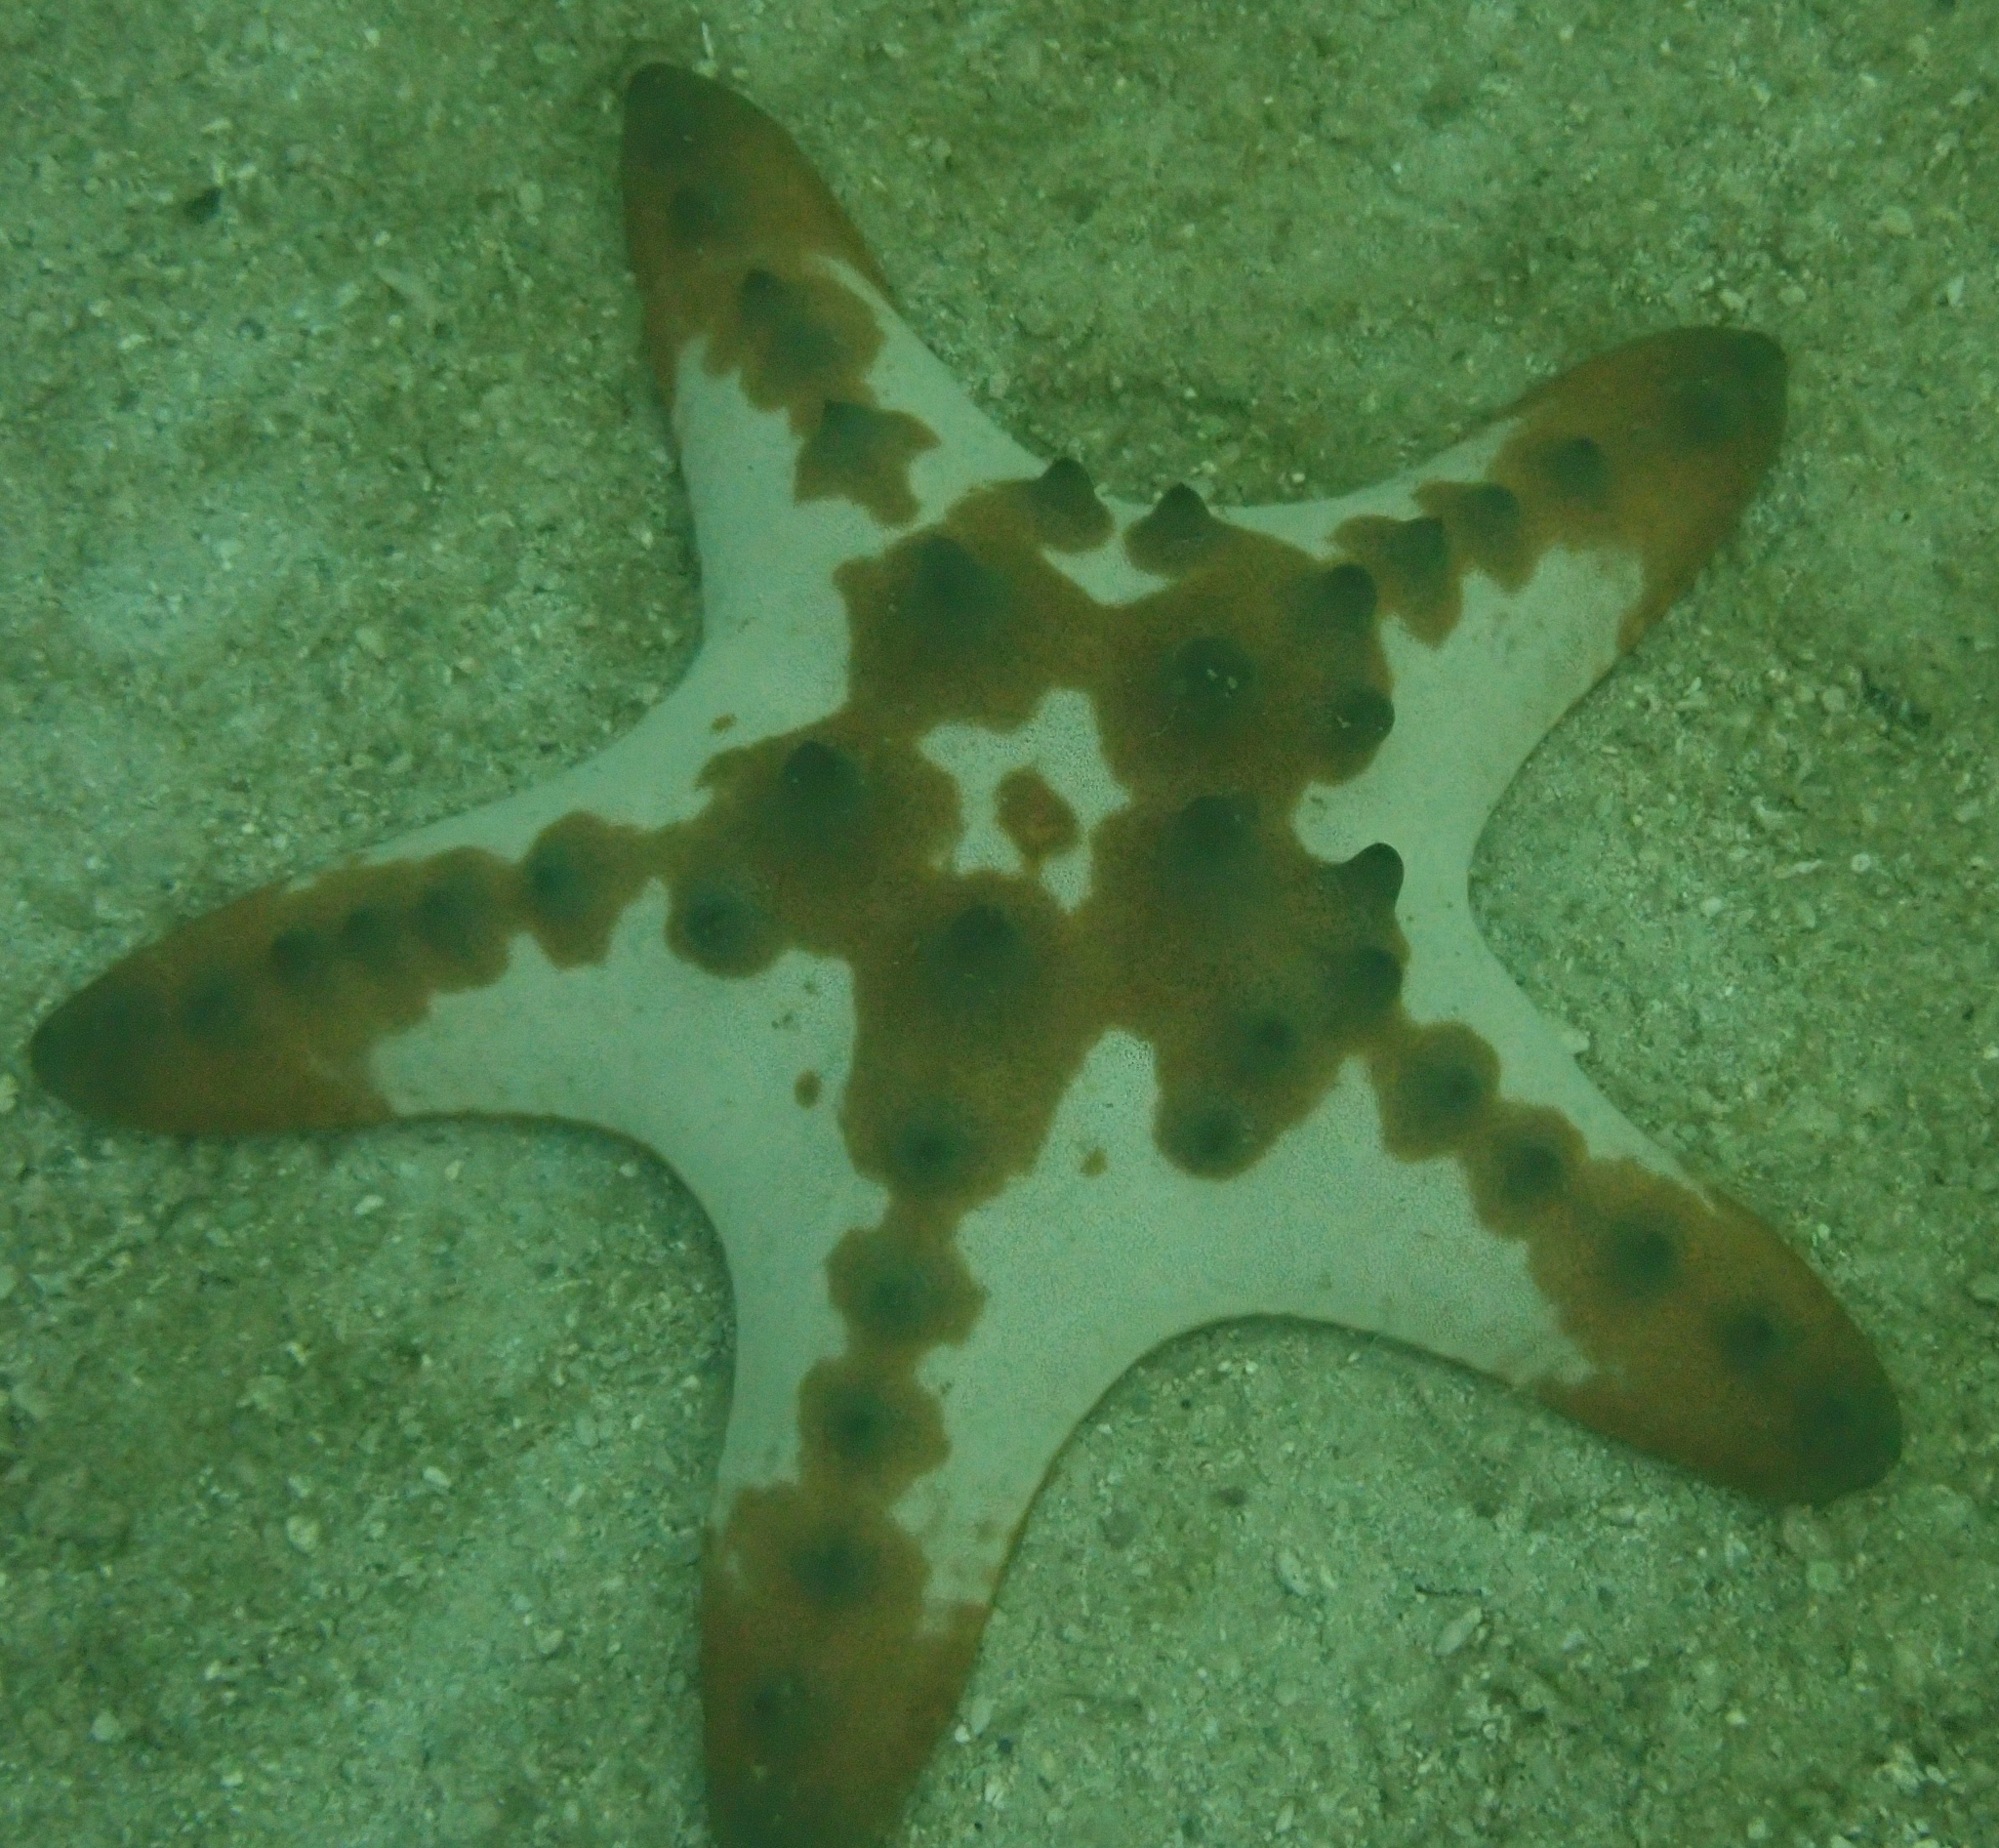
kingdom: Animalia
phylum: Echinodermata
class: Asteroidea
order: Valvatida
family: Oreasteridae
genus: Protoreaster
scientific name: Protoreaster nodosus
